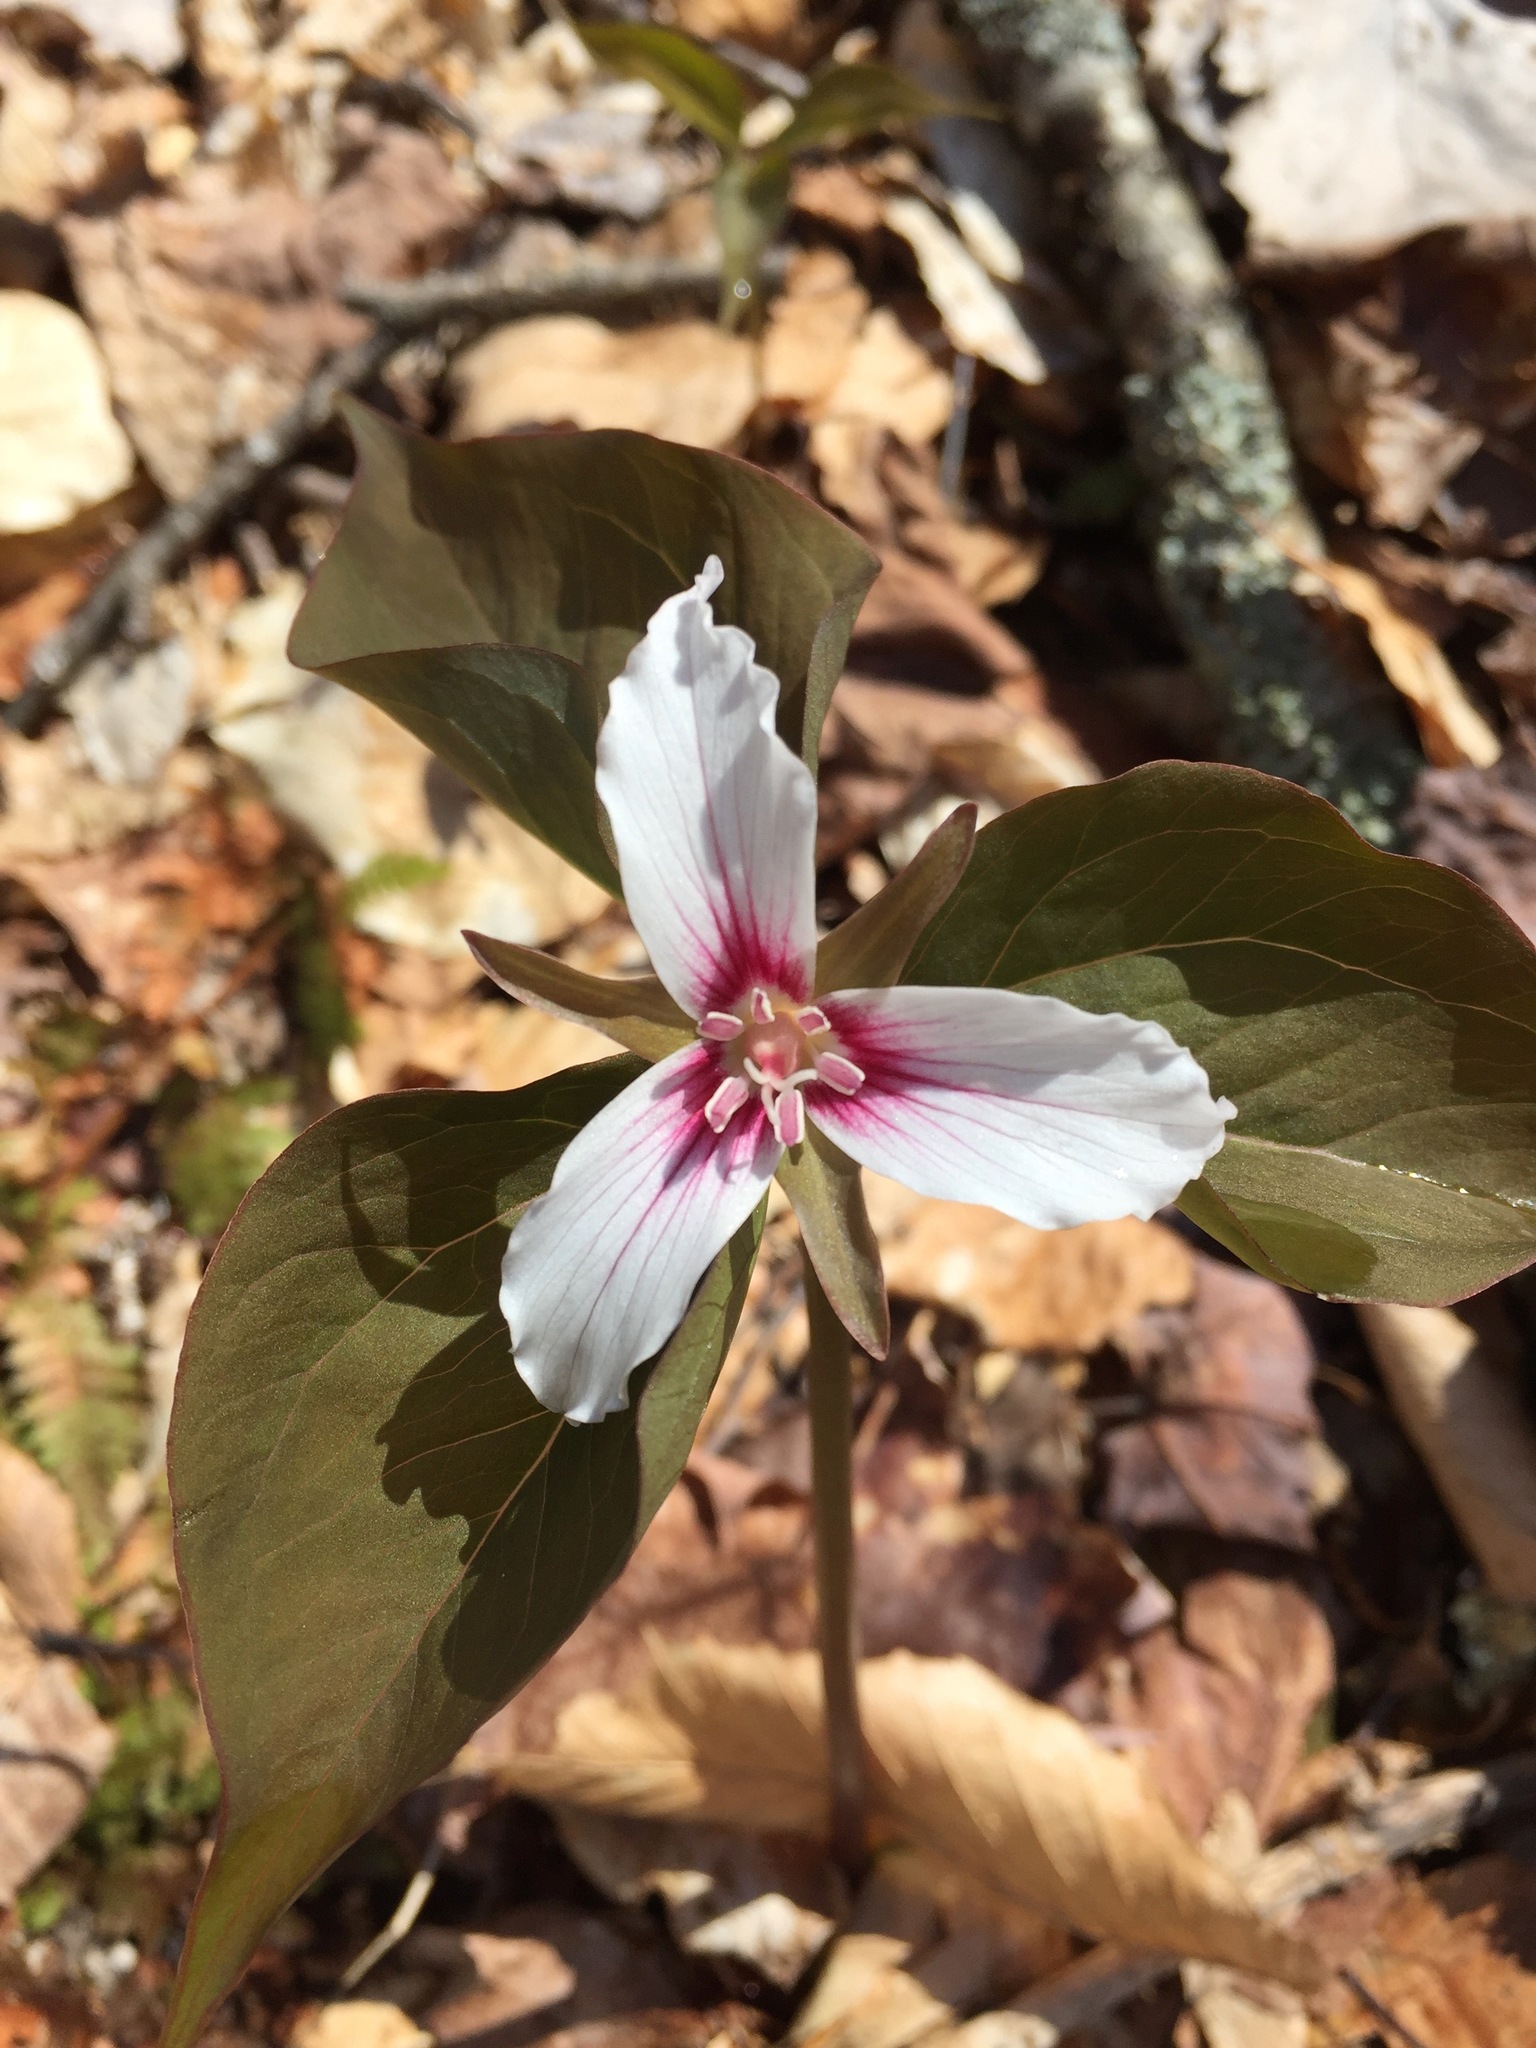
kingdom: Plantae
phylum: Tracheophyta
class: Liliopsida
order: Liliales
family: Melanthiaceae
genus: Trillium
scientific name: Trillium undulatum
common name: Paint trillium
